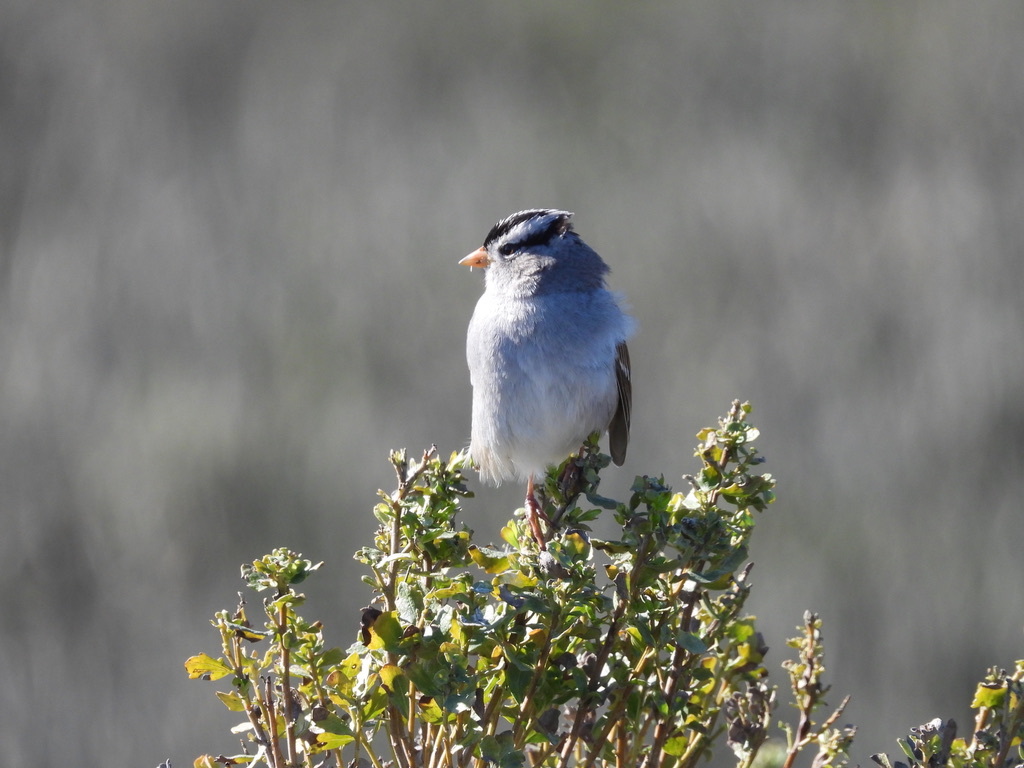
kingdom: Animalia
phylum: Chordata
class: Aves
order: Passeriformes
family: Passerellidae
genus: Zonotrichia
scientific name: Zonotrichia leucophrys
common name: White-crowned sparrow
